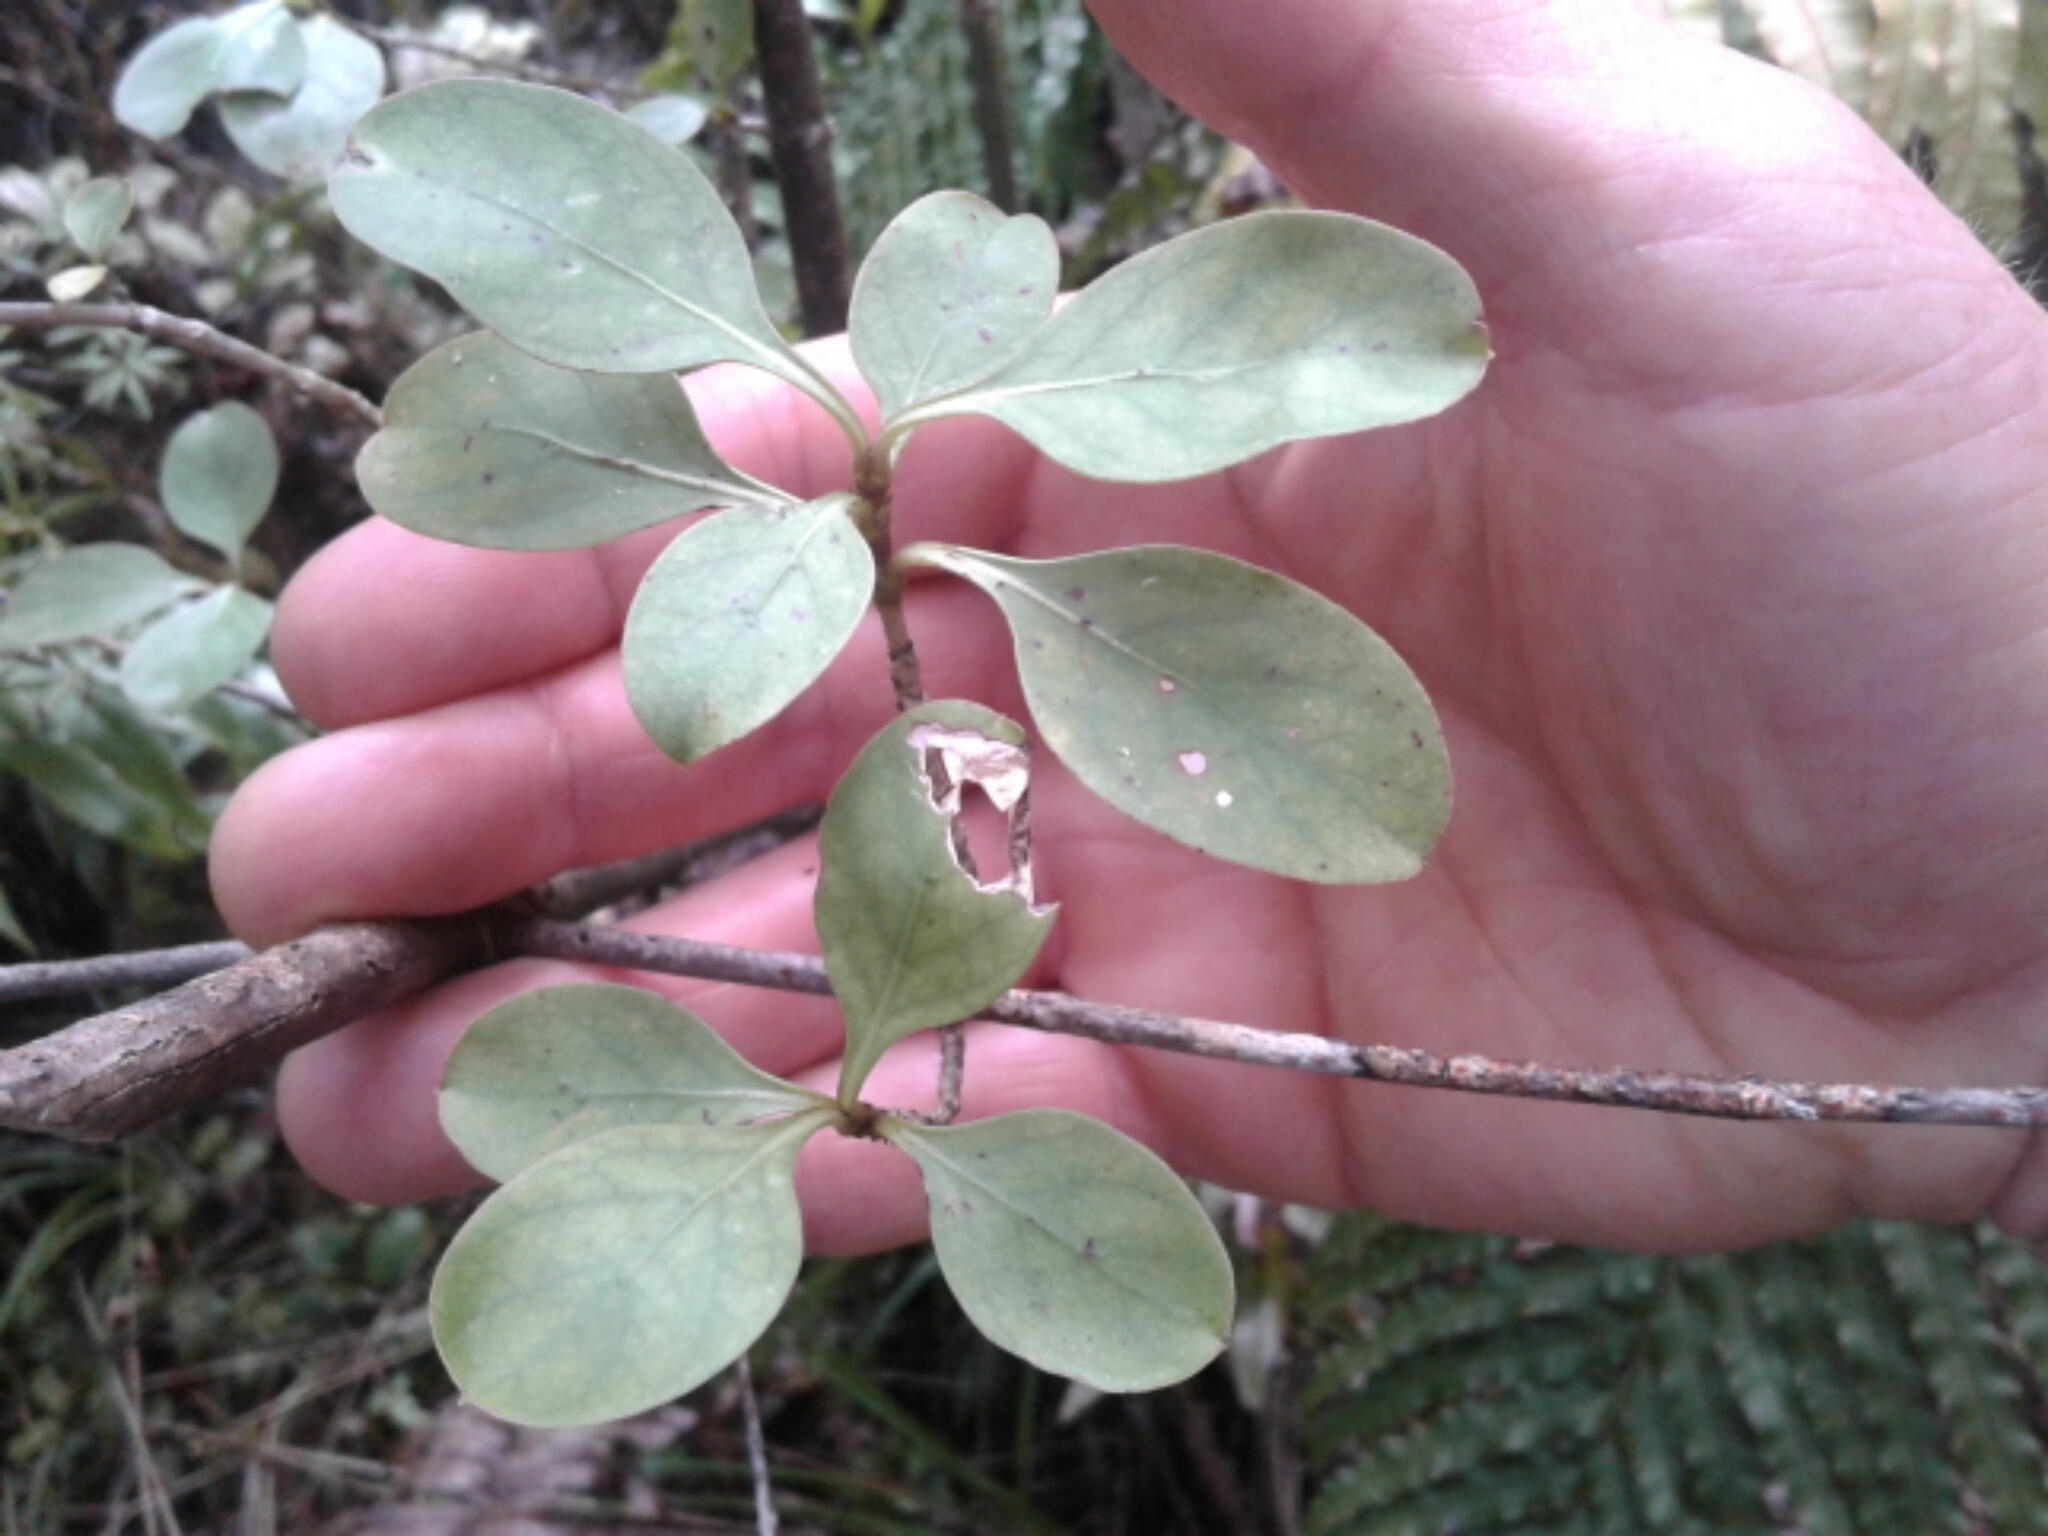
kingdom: Plantae
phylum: Tracheophyta
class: Magnoliopsida
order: Gentianales
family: Rubiaceae
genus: Coprosma
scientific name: Coprosma foetidissima
